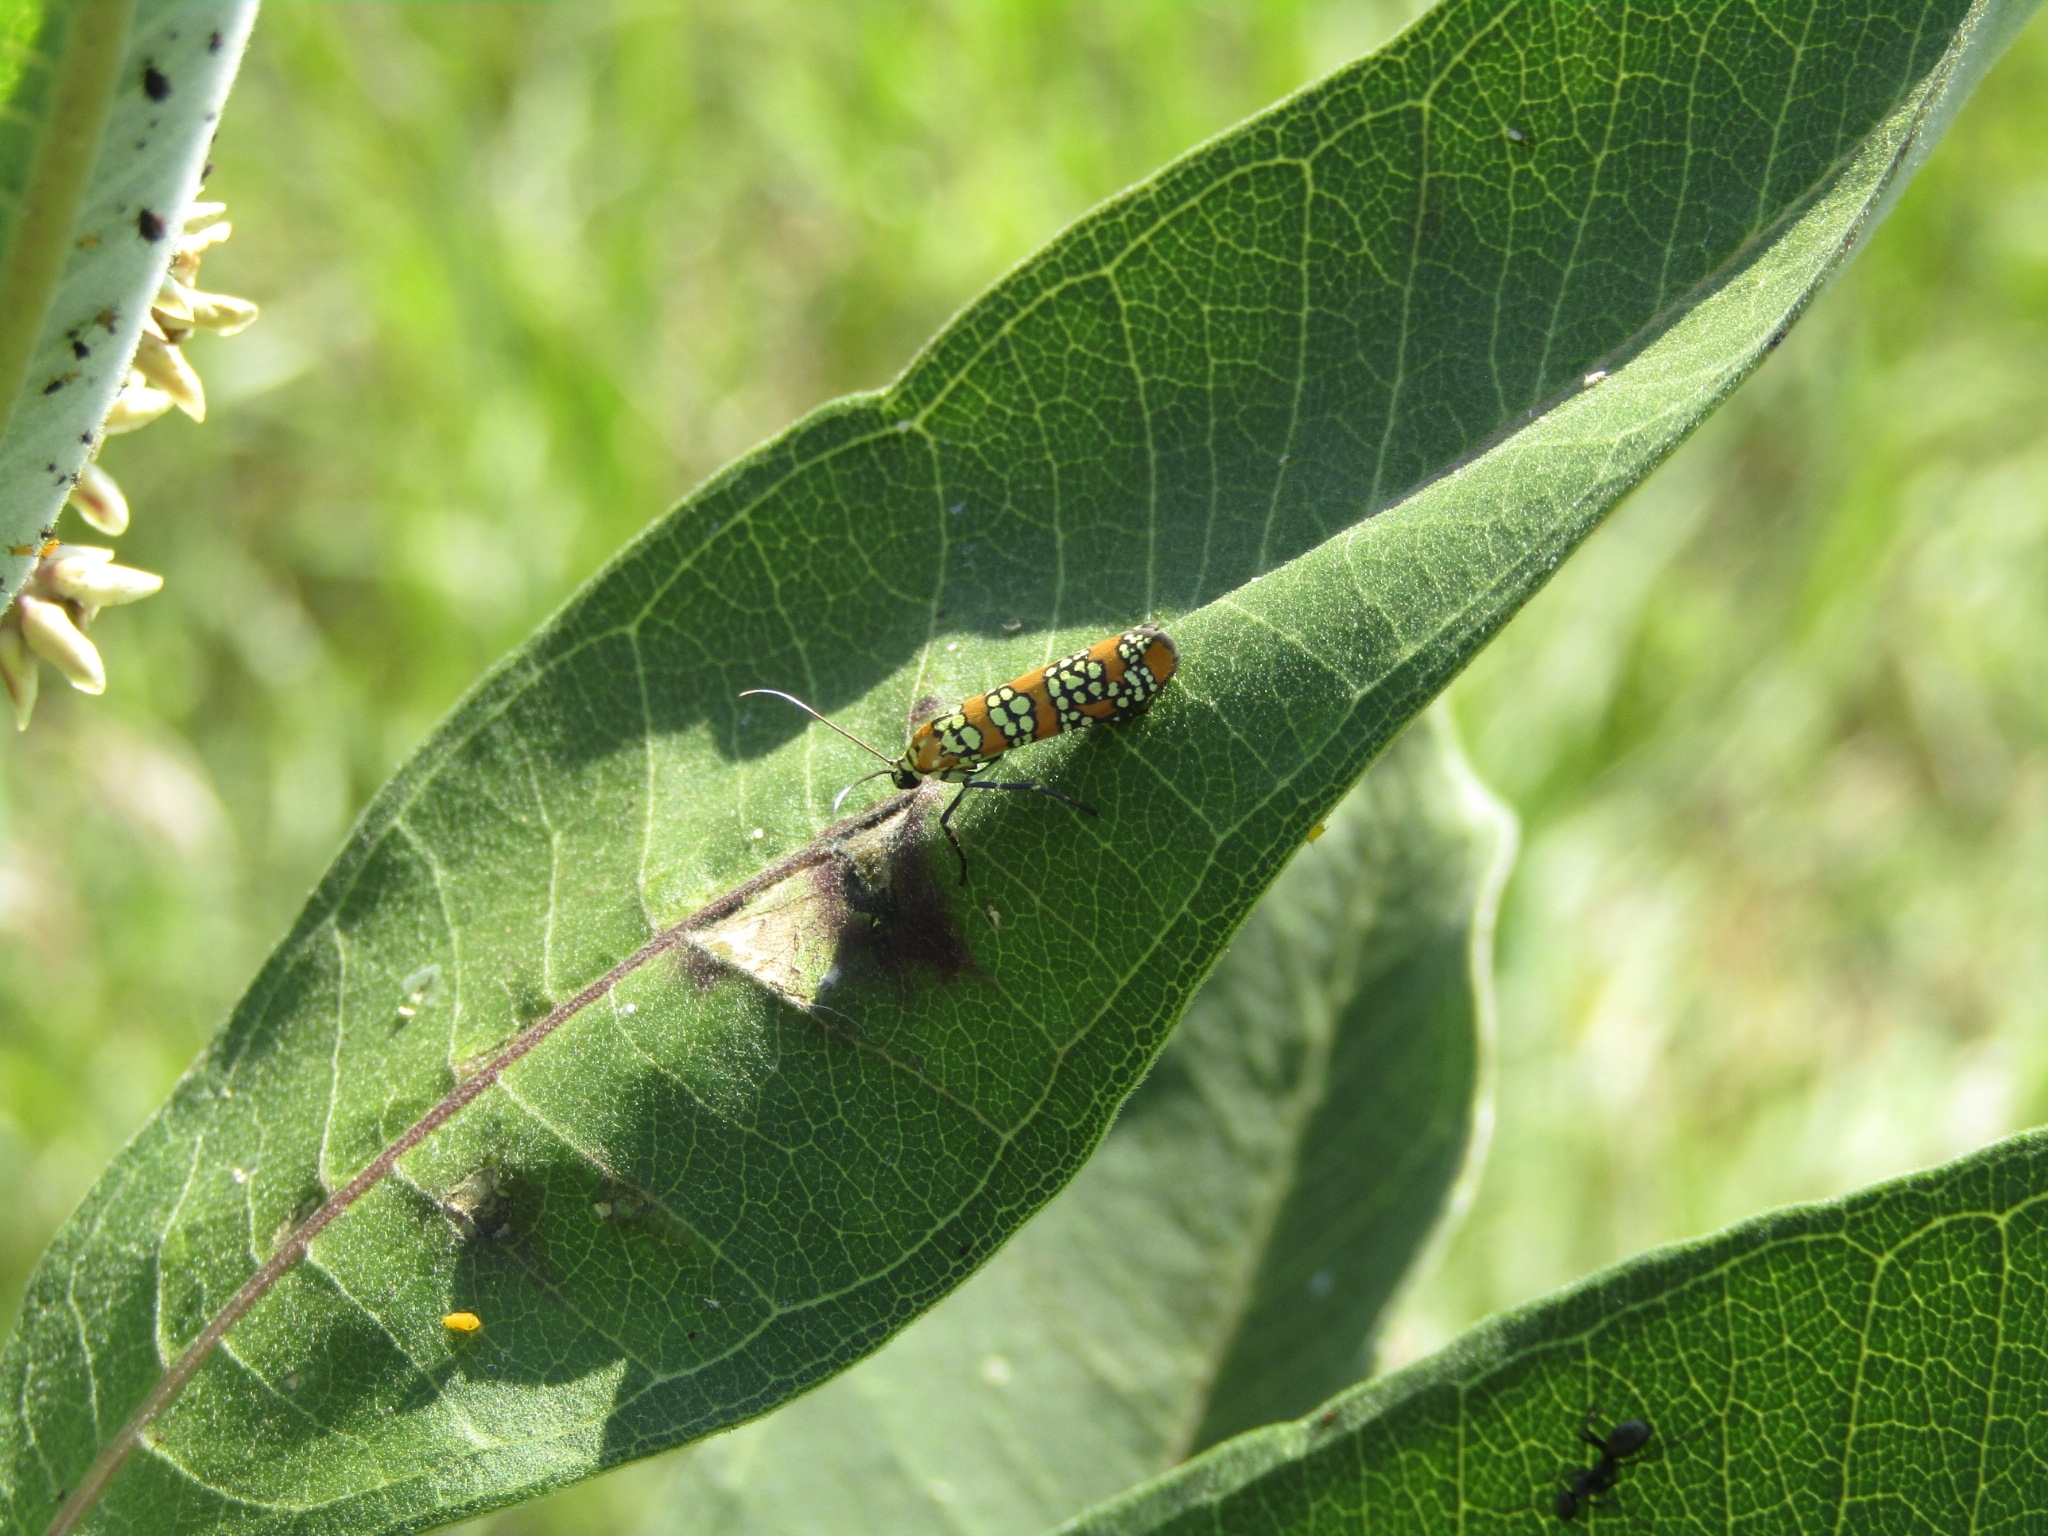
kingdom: Animalia
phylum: Arthropoda
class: Insecta
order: Lepidoptera
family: Attevidae
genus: Atteva
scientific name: Atteva punctella
